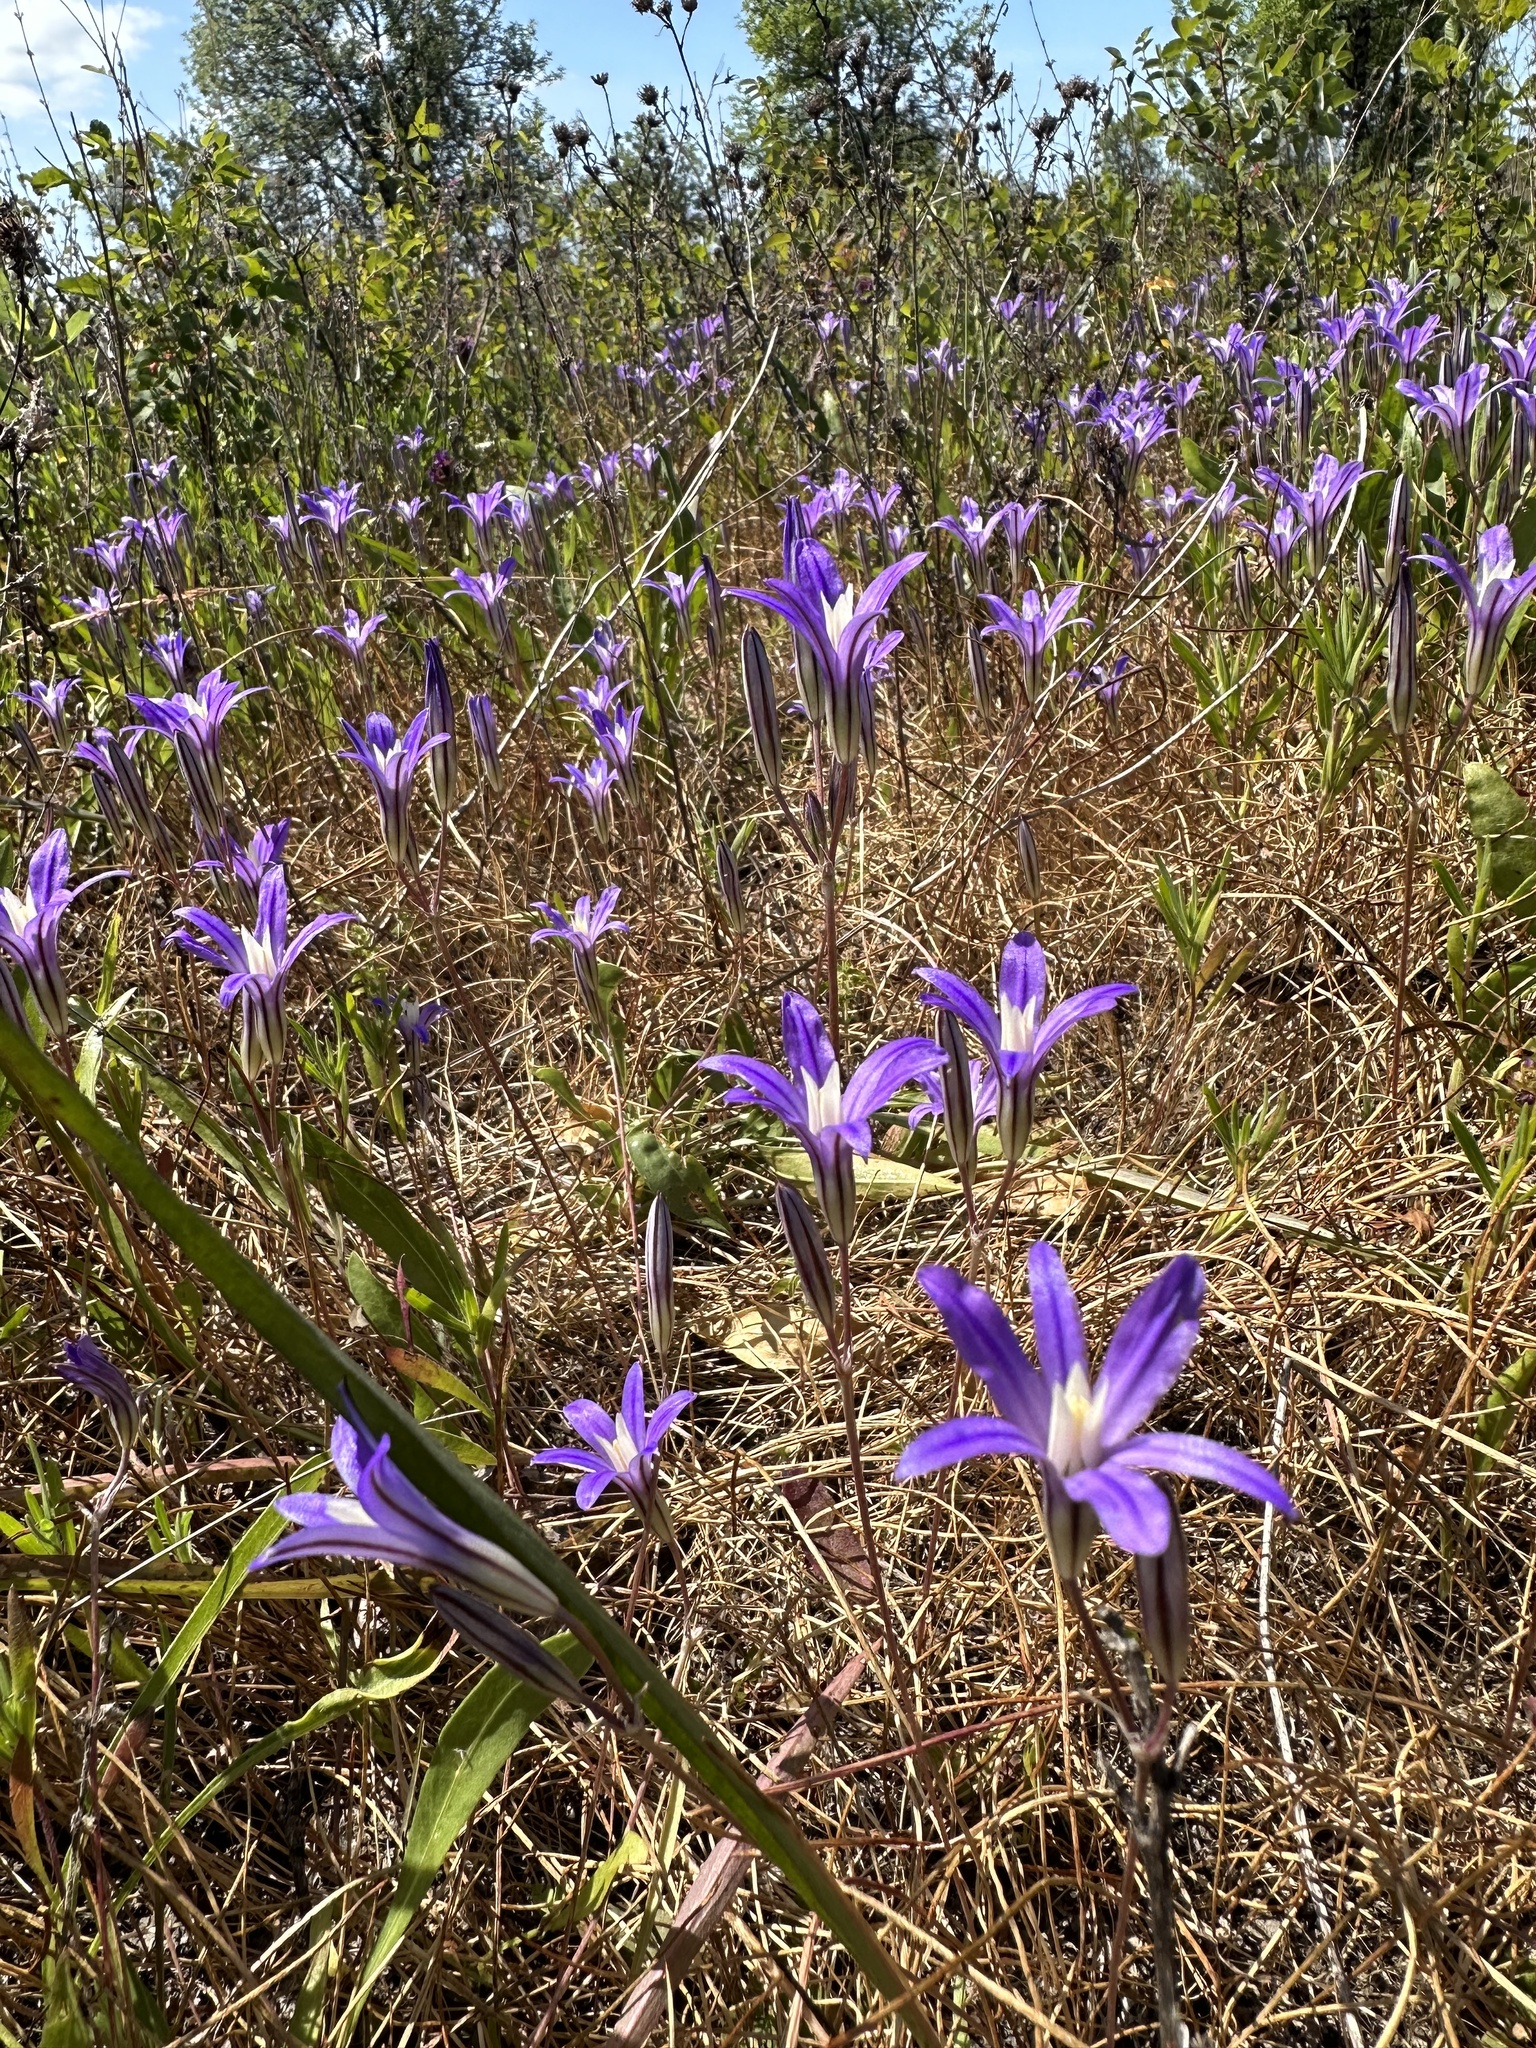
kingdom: Plantae
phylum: Tracheophyta
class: Liliopsida
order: Asparagales
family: Asparagaceae
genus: Brodiaea
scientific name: Brodiaea coronaria
